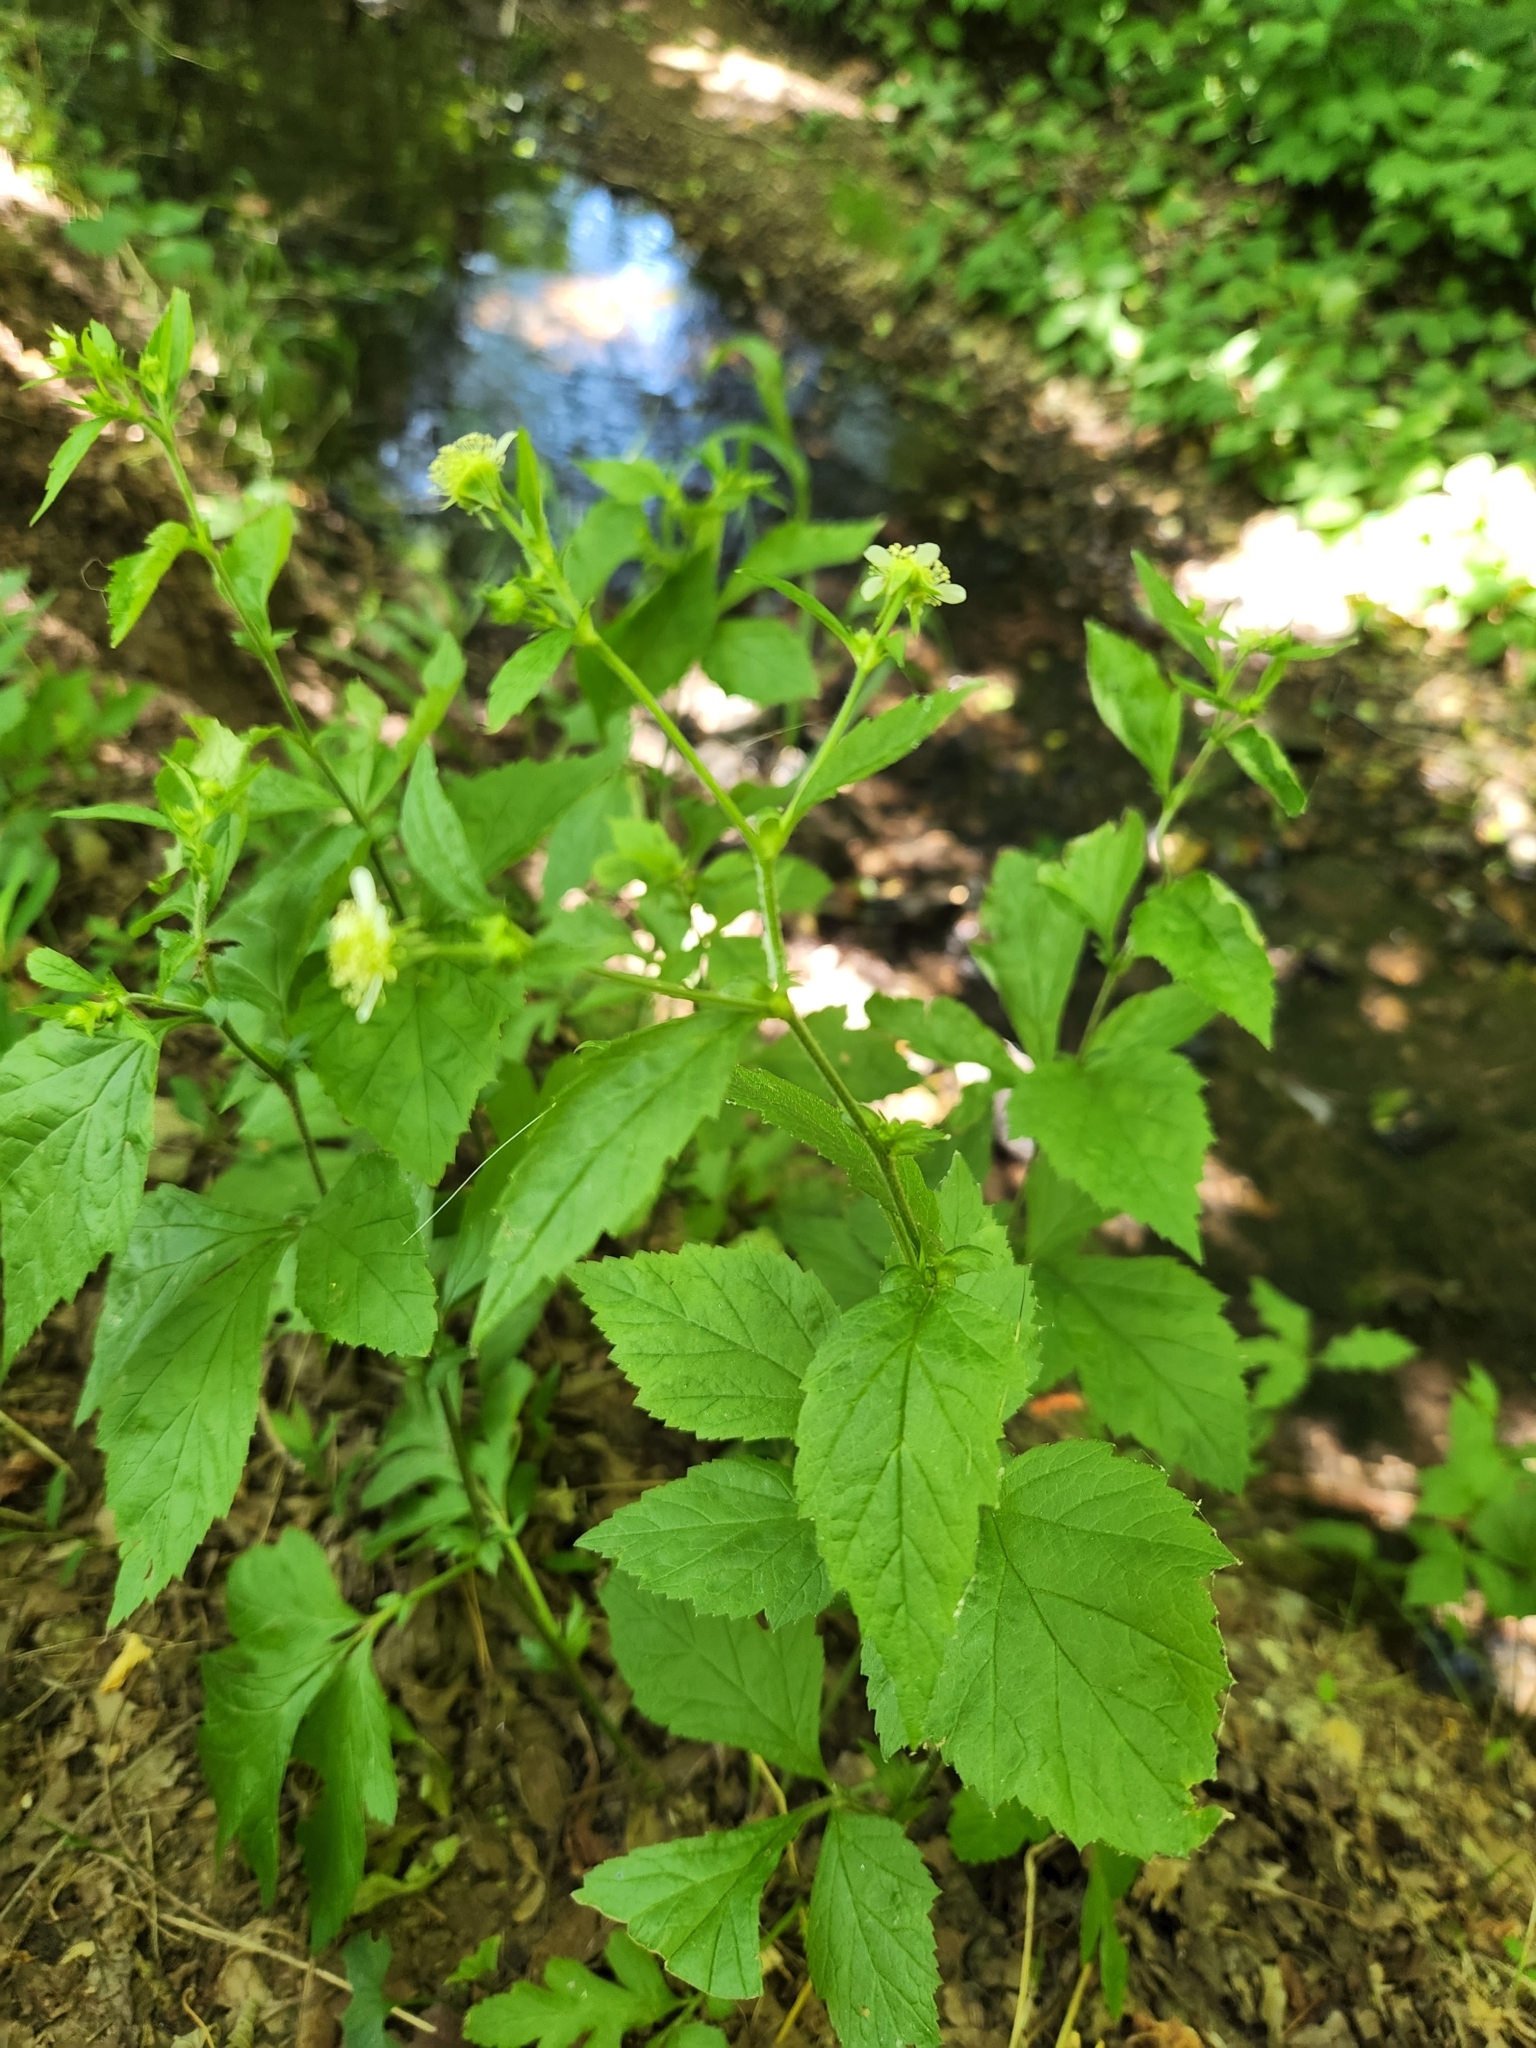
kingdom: Plantae
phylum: Tracheophyta
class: Magnoliopsida
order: Rosales
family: Rosaceae
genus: Geum
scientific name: Geum canadense
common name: White avens
